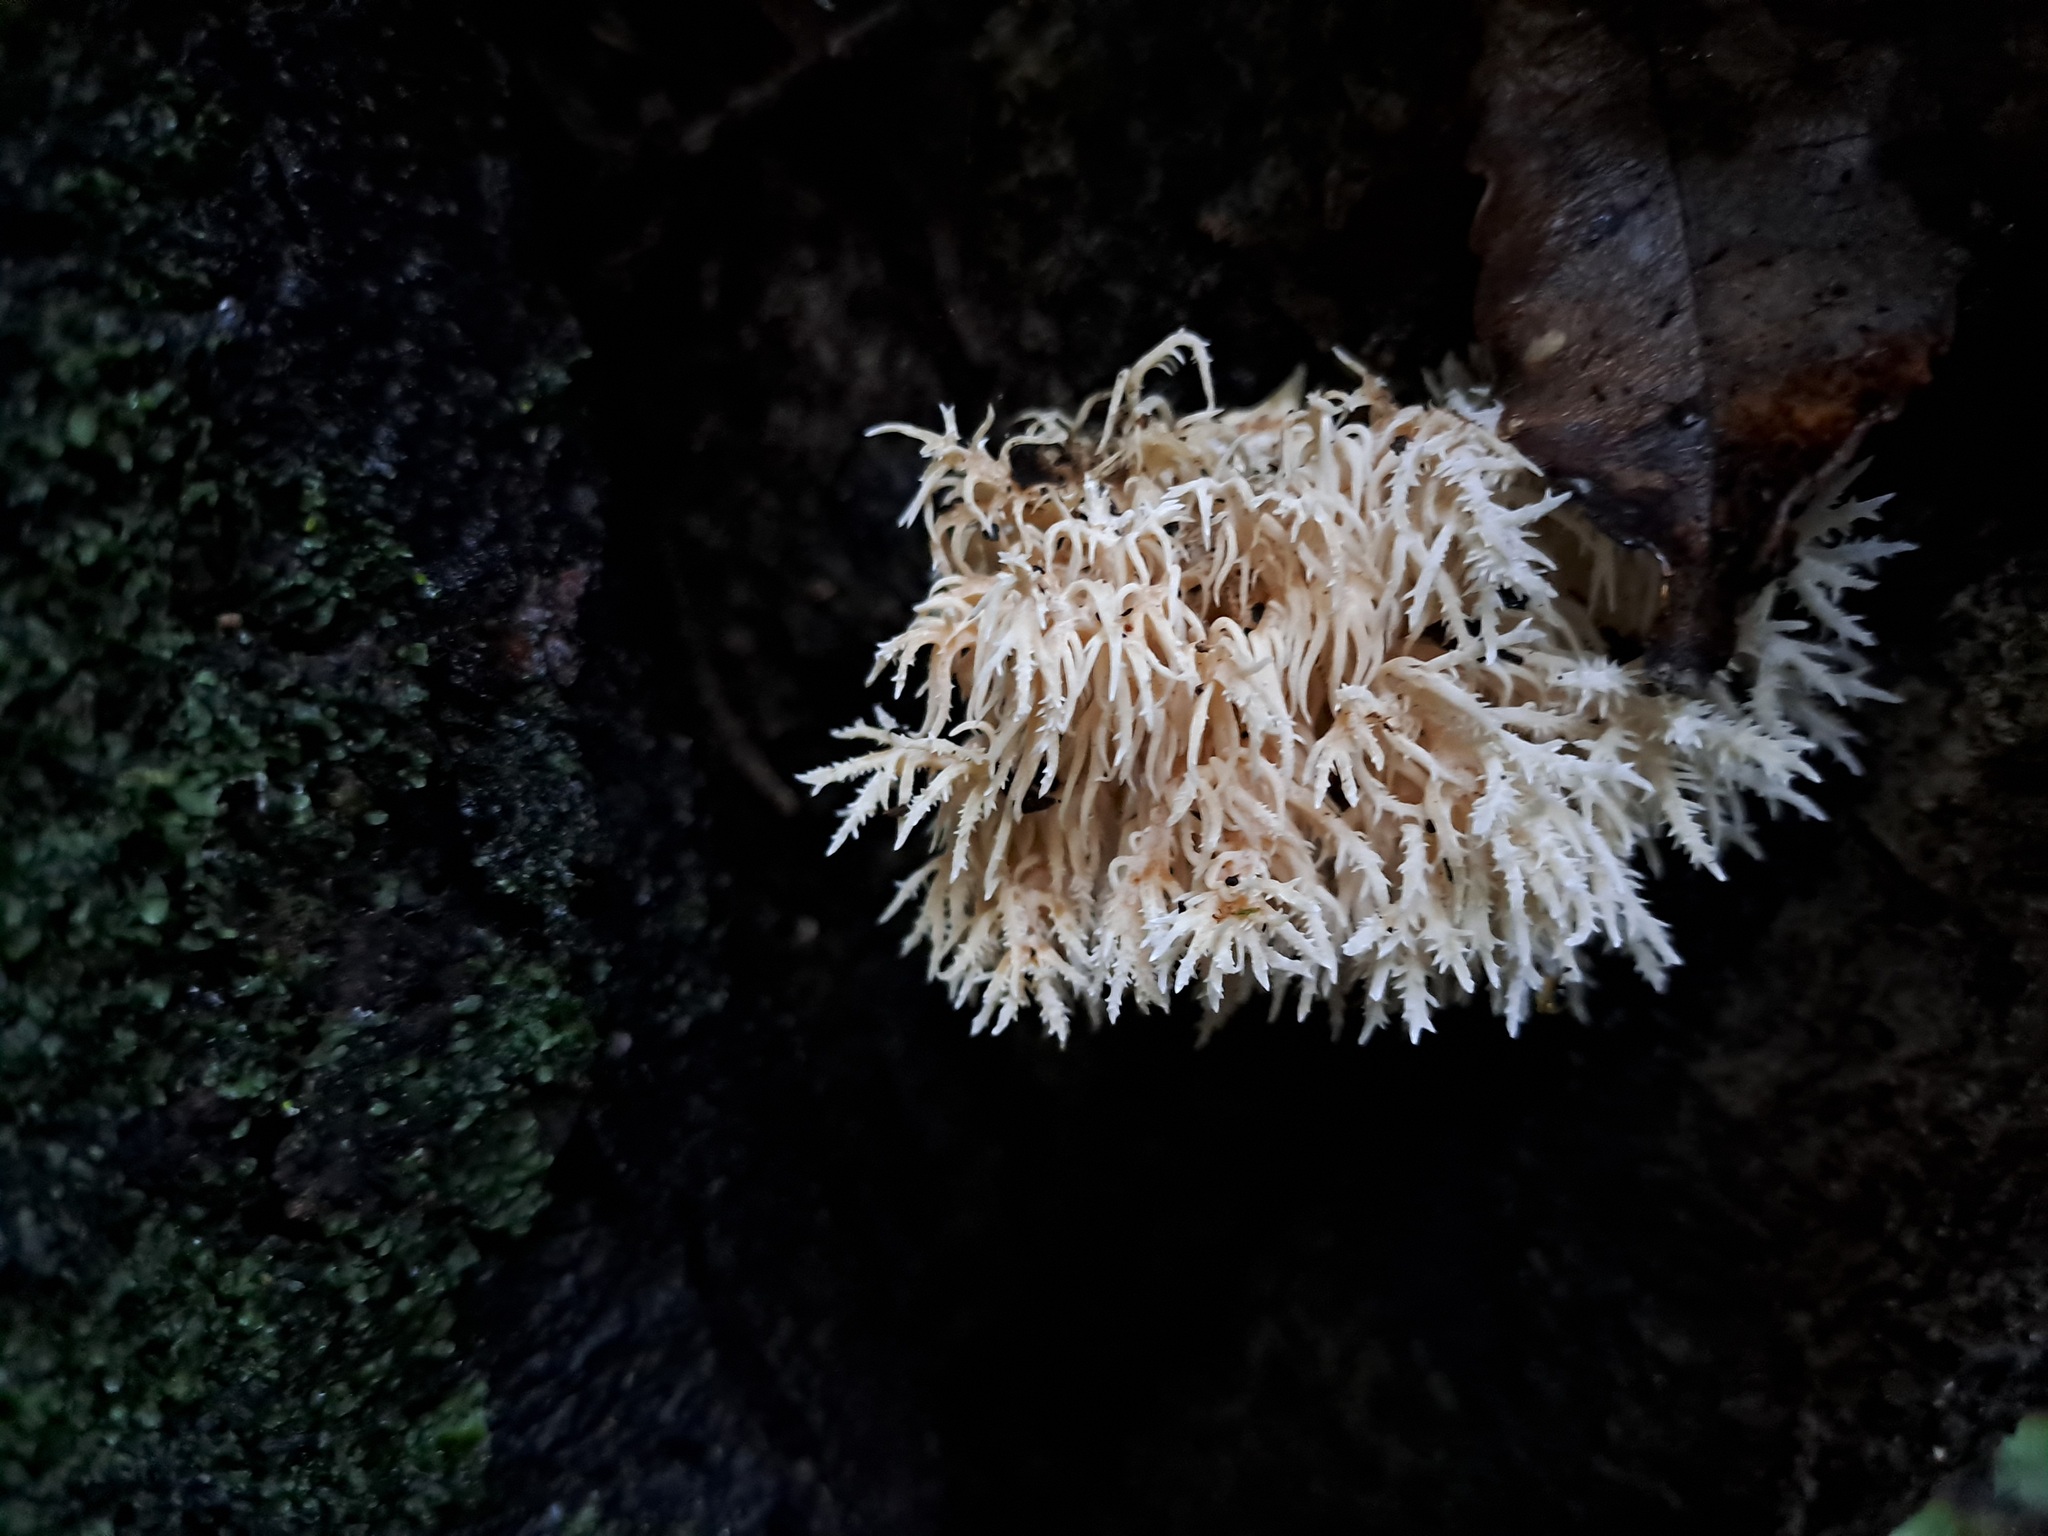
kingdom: Fungi
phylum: Basidiomycota
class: Agaricomycetes
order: Russulales
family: Hericiaceae
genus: Hericium
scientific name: Hericium novae-zealandiae
